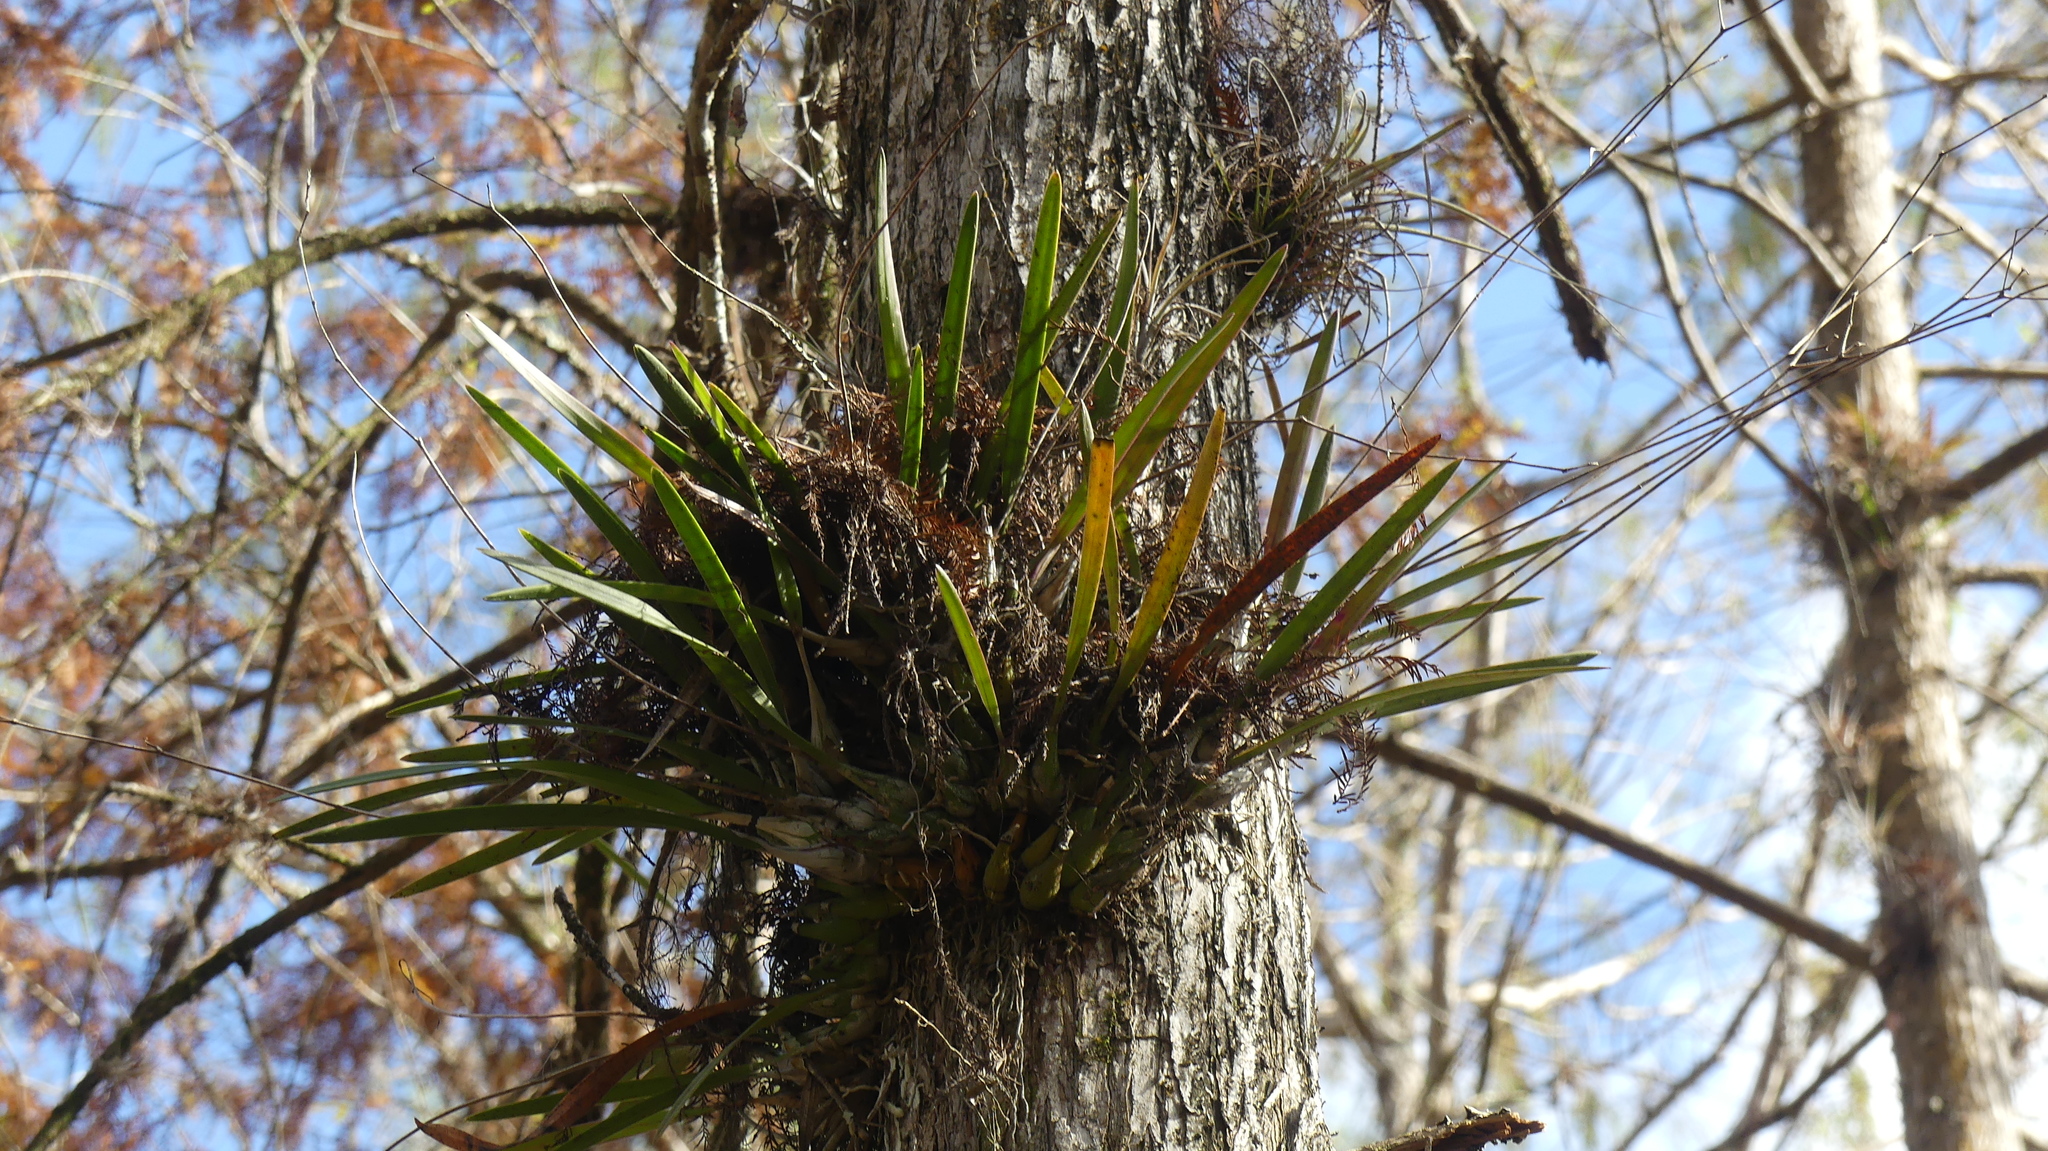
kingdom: Plantae
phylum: Tracheophyta
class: Liliopsida
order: Asparagales
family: Orchidaceae
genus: Encyclia
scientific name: Encyclia tampensis
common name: Florida butterfly orchid
